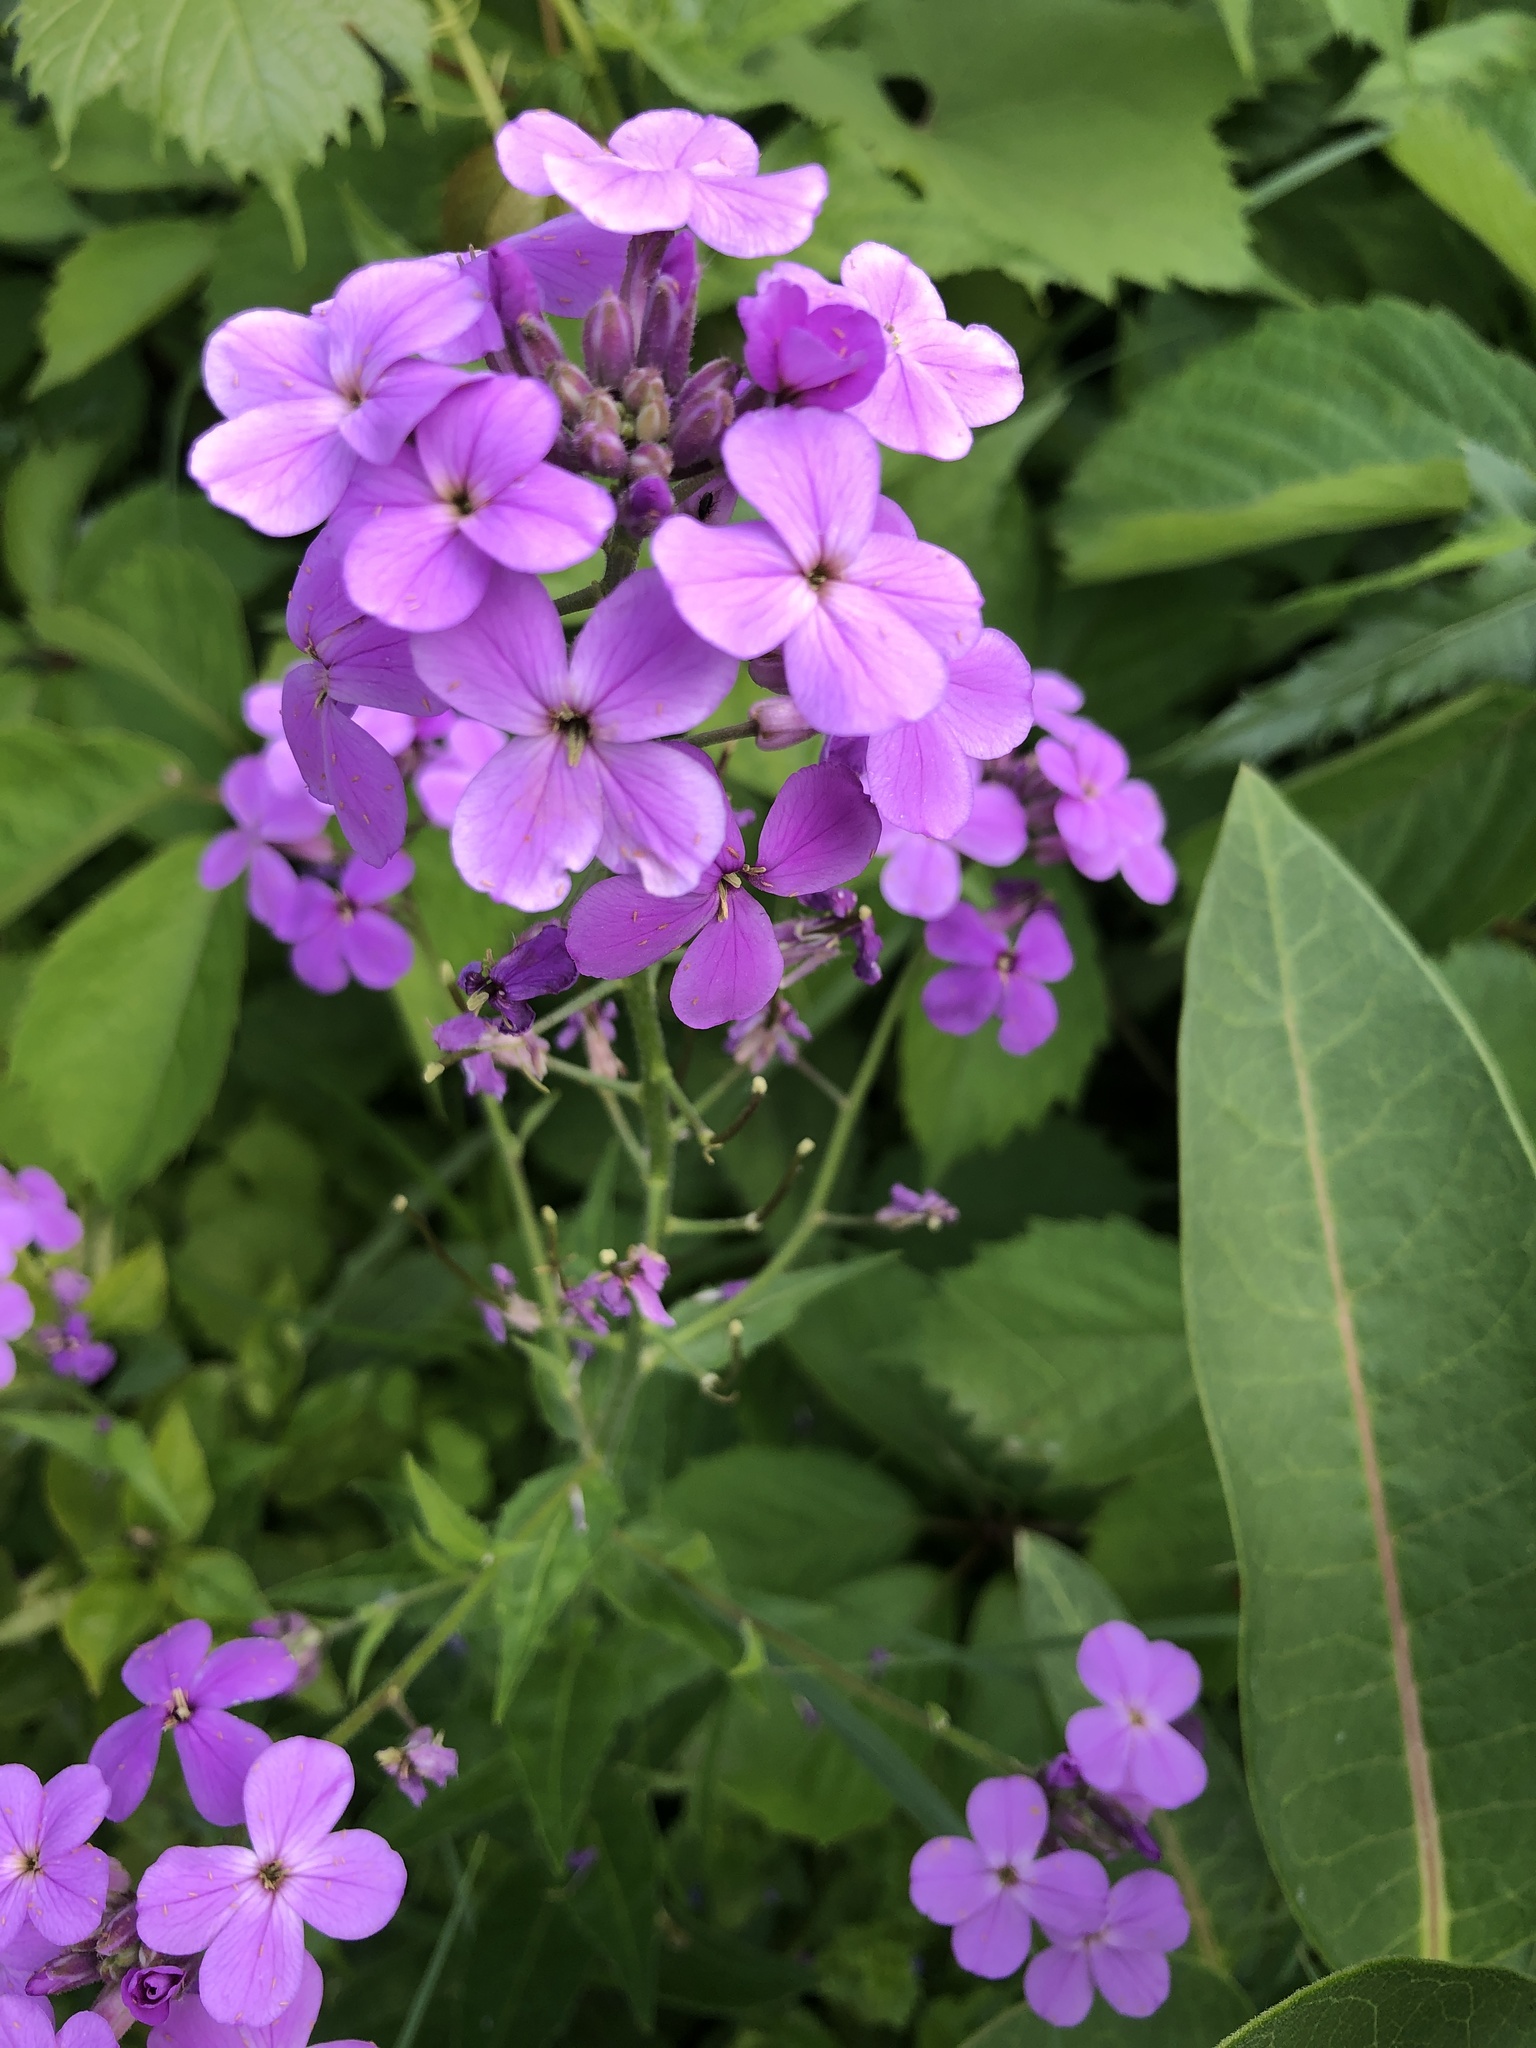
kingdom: Plantae
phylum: Tracheophyta
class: Magnoliopsida
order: Brassicales
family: Brassicaceae
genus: Hesperis
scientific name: Hesperis matronalis
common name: Dame's-violet
